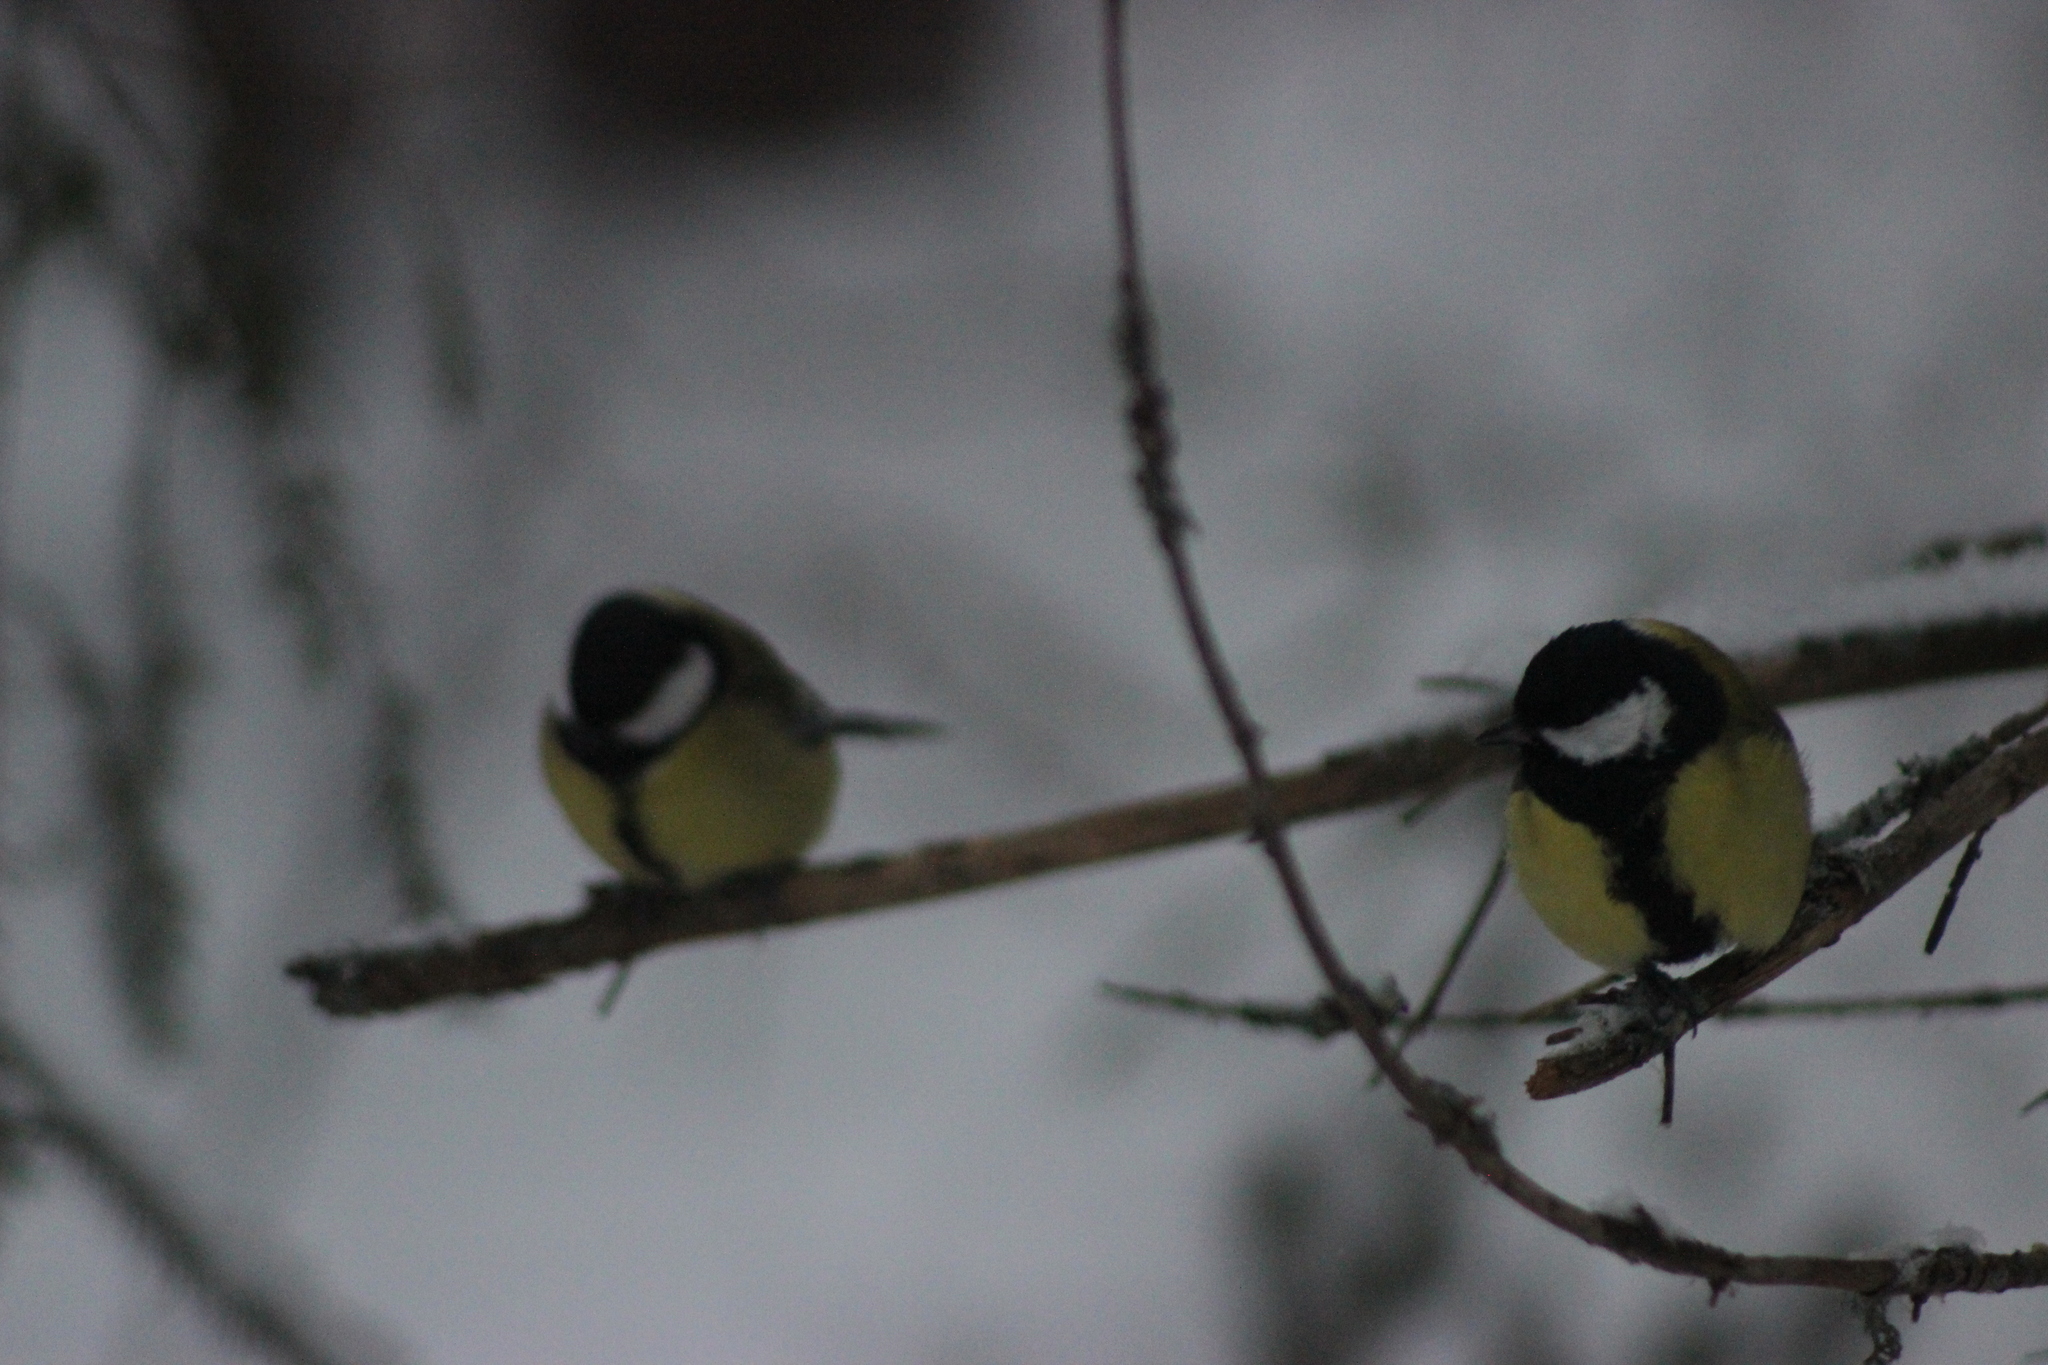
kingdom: Animalia
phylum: Chordata
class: Aves
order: Passeriformes
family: Paridae
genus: Parus
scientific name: Parus major
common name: Great tit
